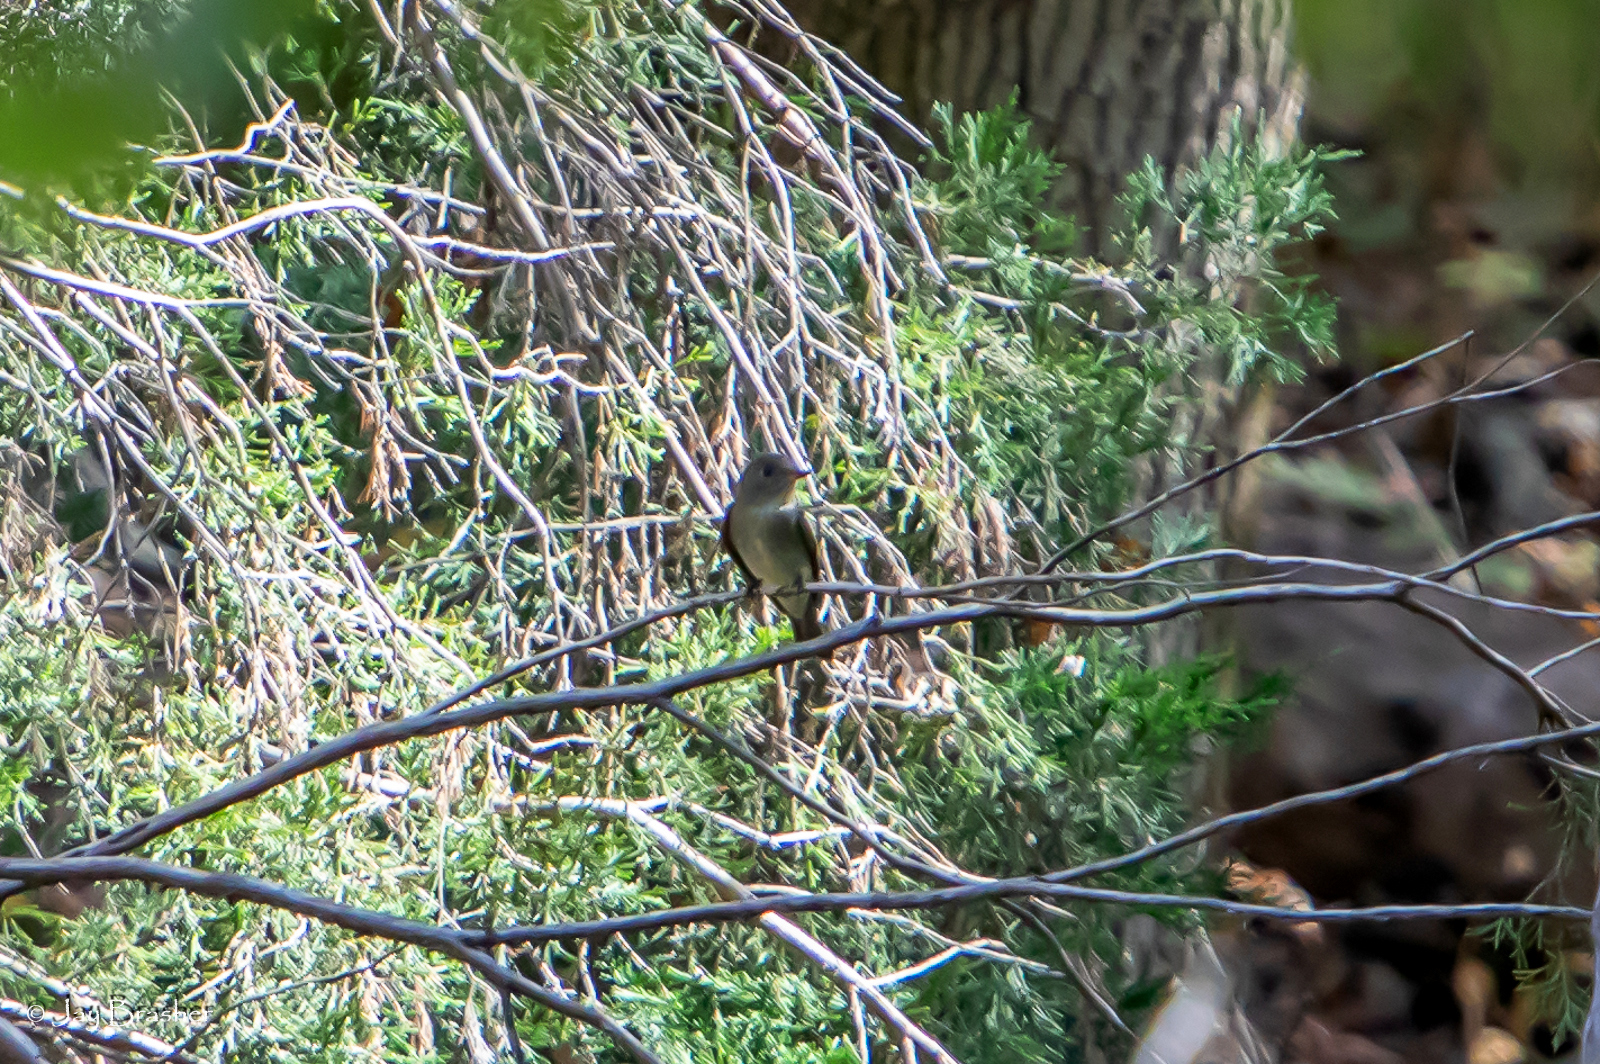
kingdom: Animalia
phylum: Chordata
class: Aves
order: Passeriformes
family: Tyrannidae
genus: Contopus
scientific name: Contopus virens
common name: Eastern wood-pewee
